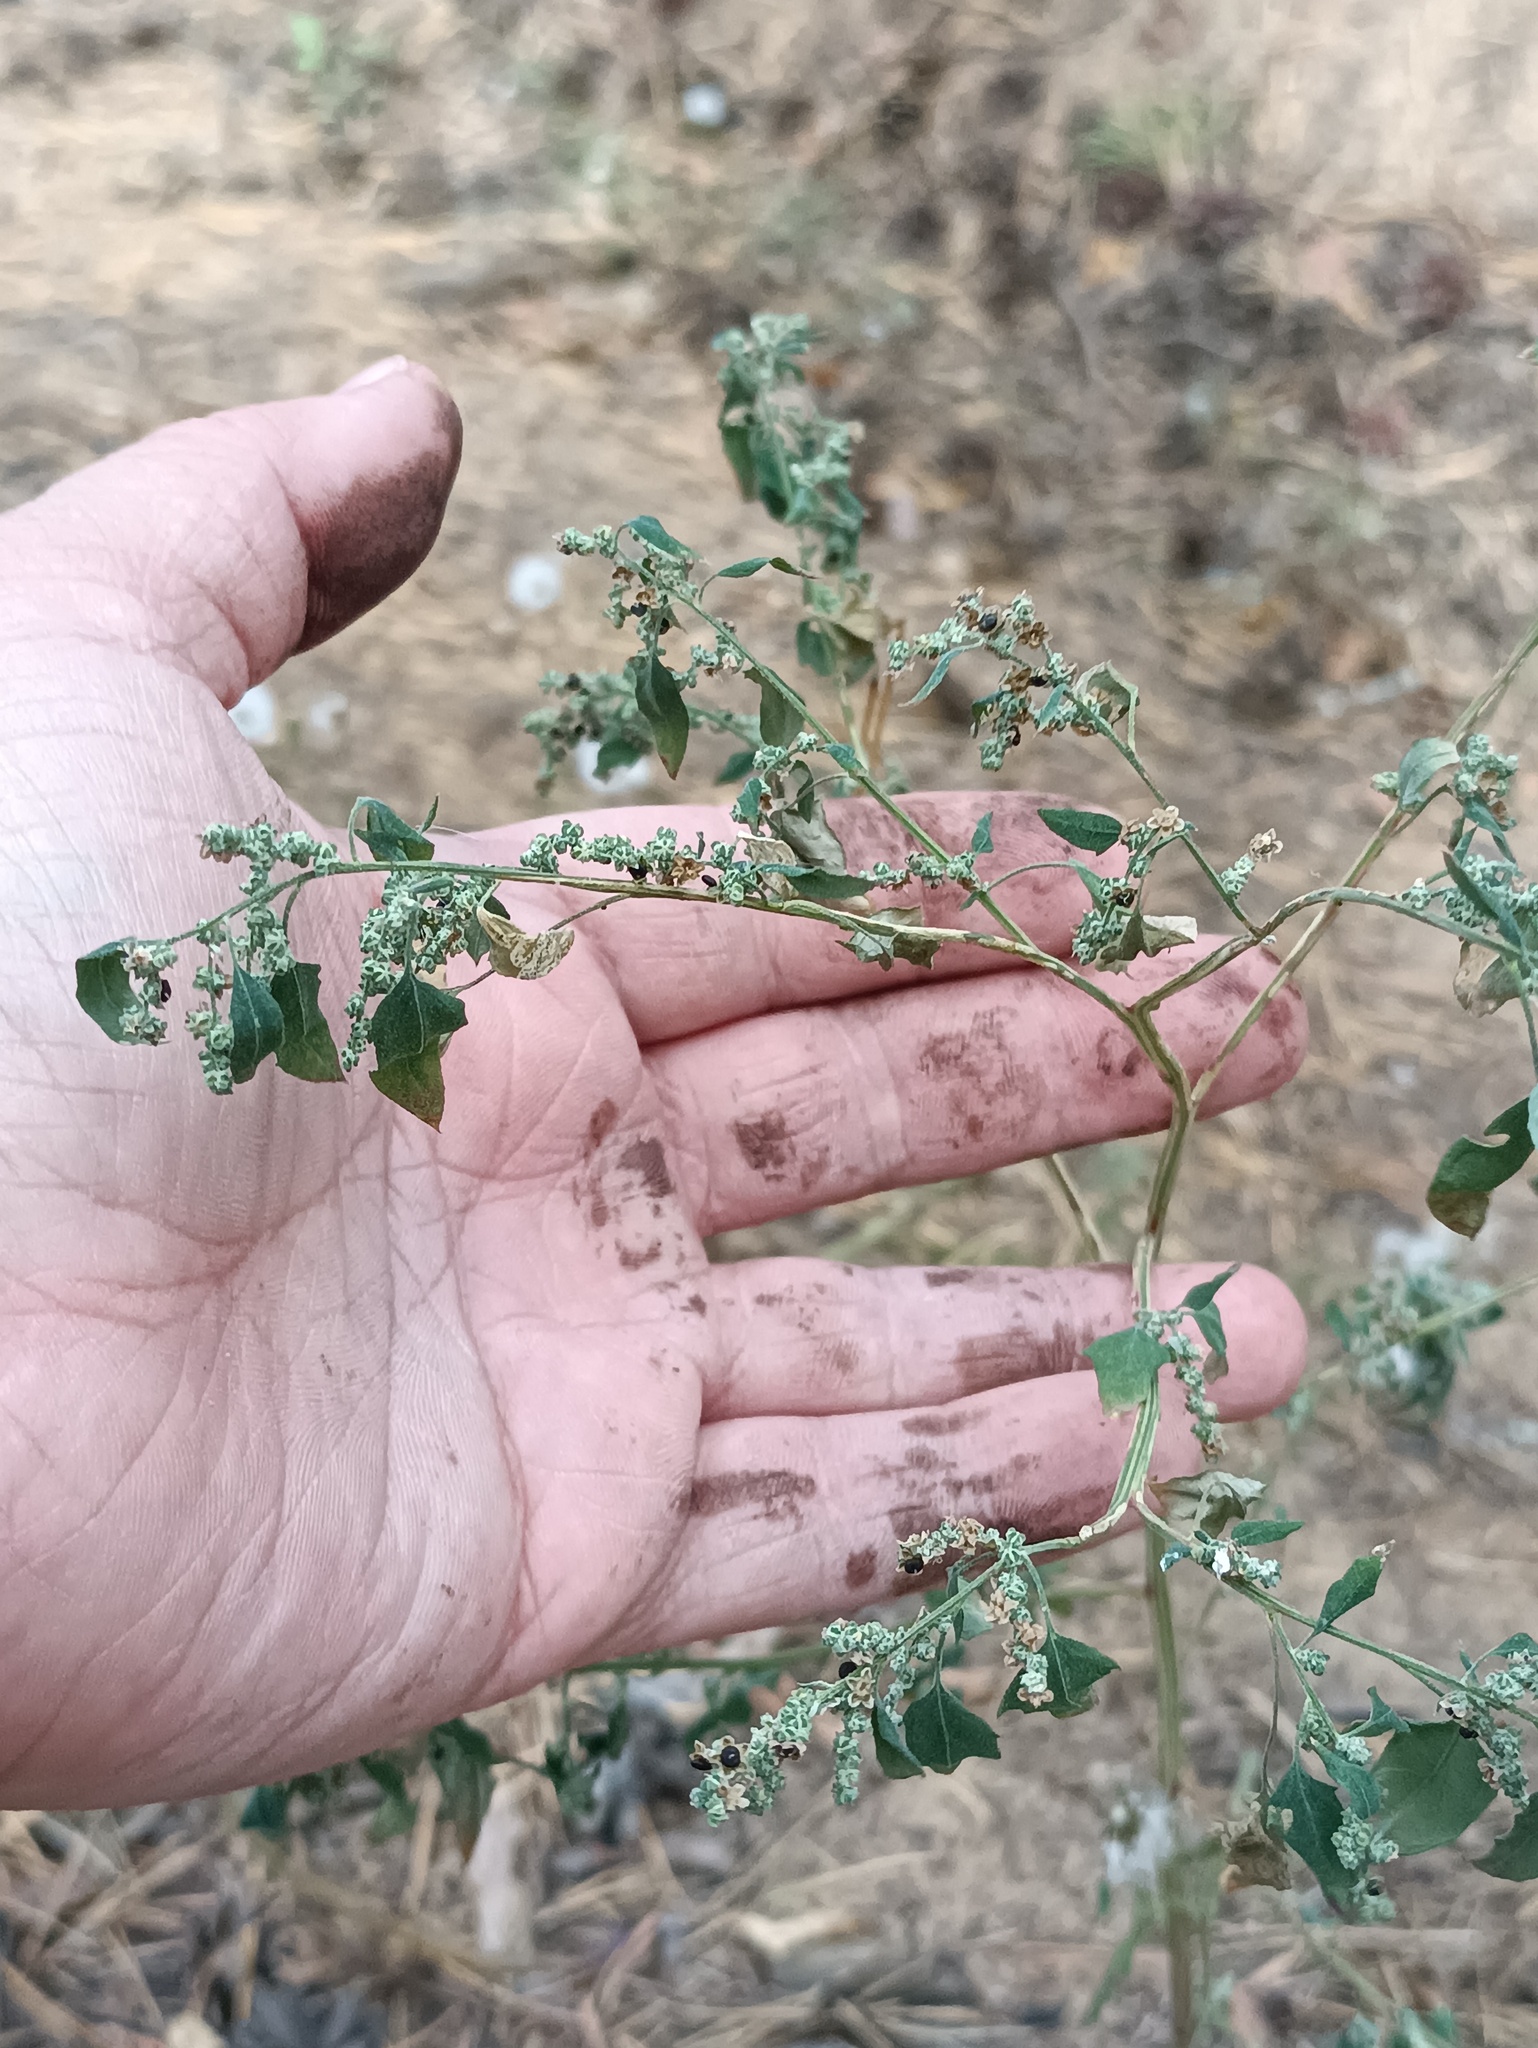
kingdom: Plantae
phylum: Tracheophyta
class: Magnoliopsida
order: Caryophyllales
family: Amaranthaceae
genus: Chenopodium
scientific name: Chenopodium album
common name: Fat-hen
